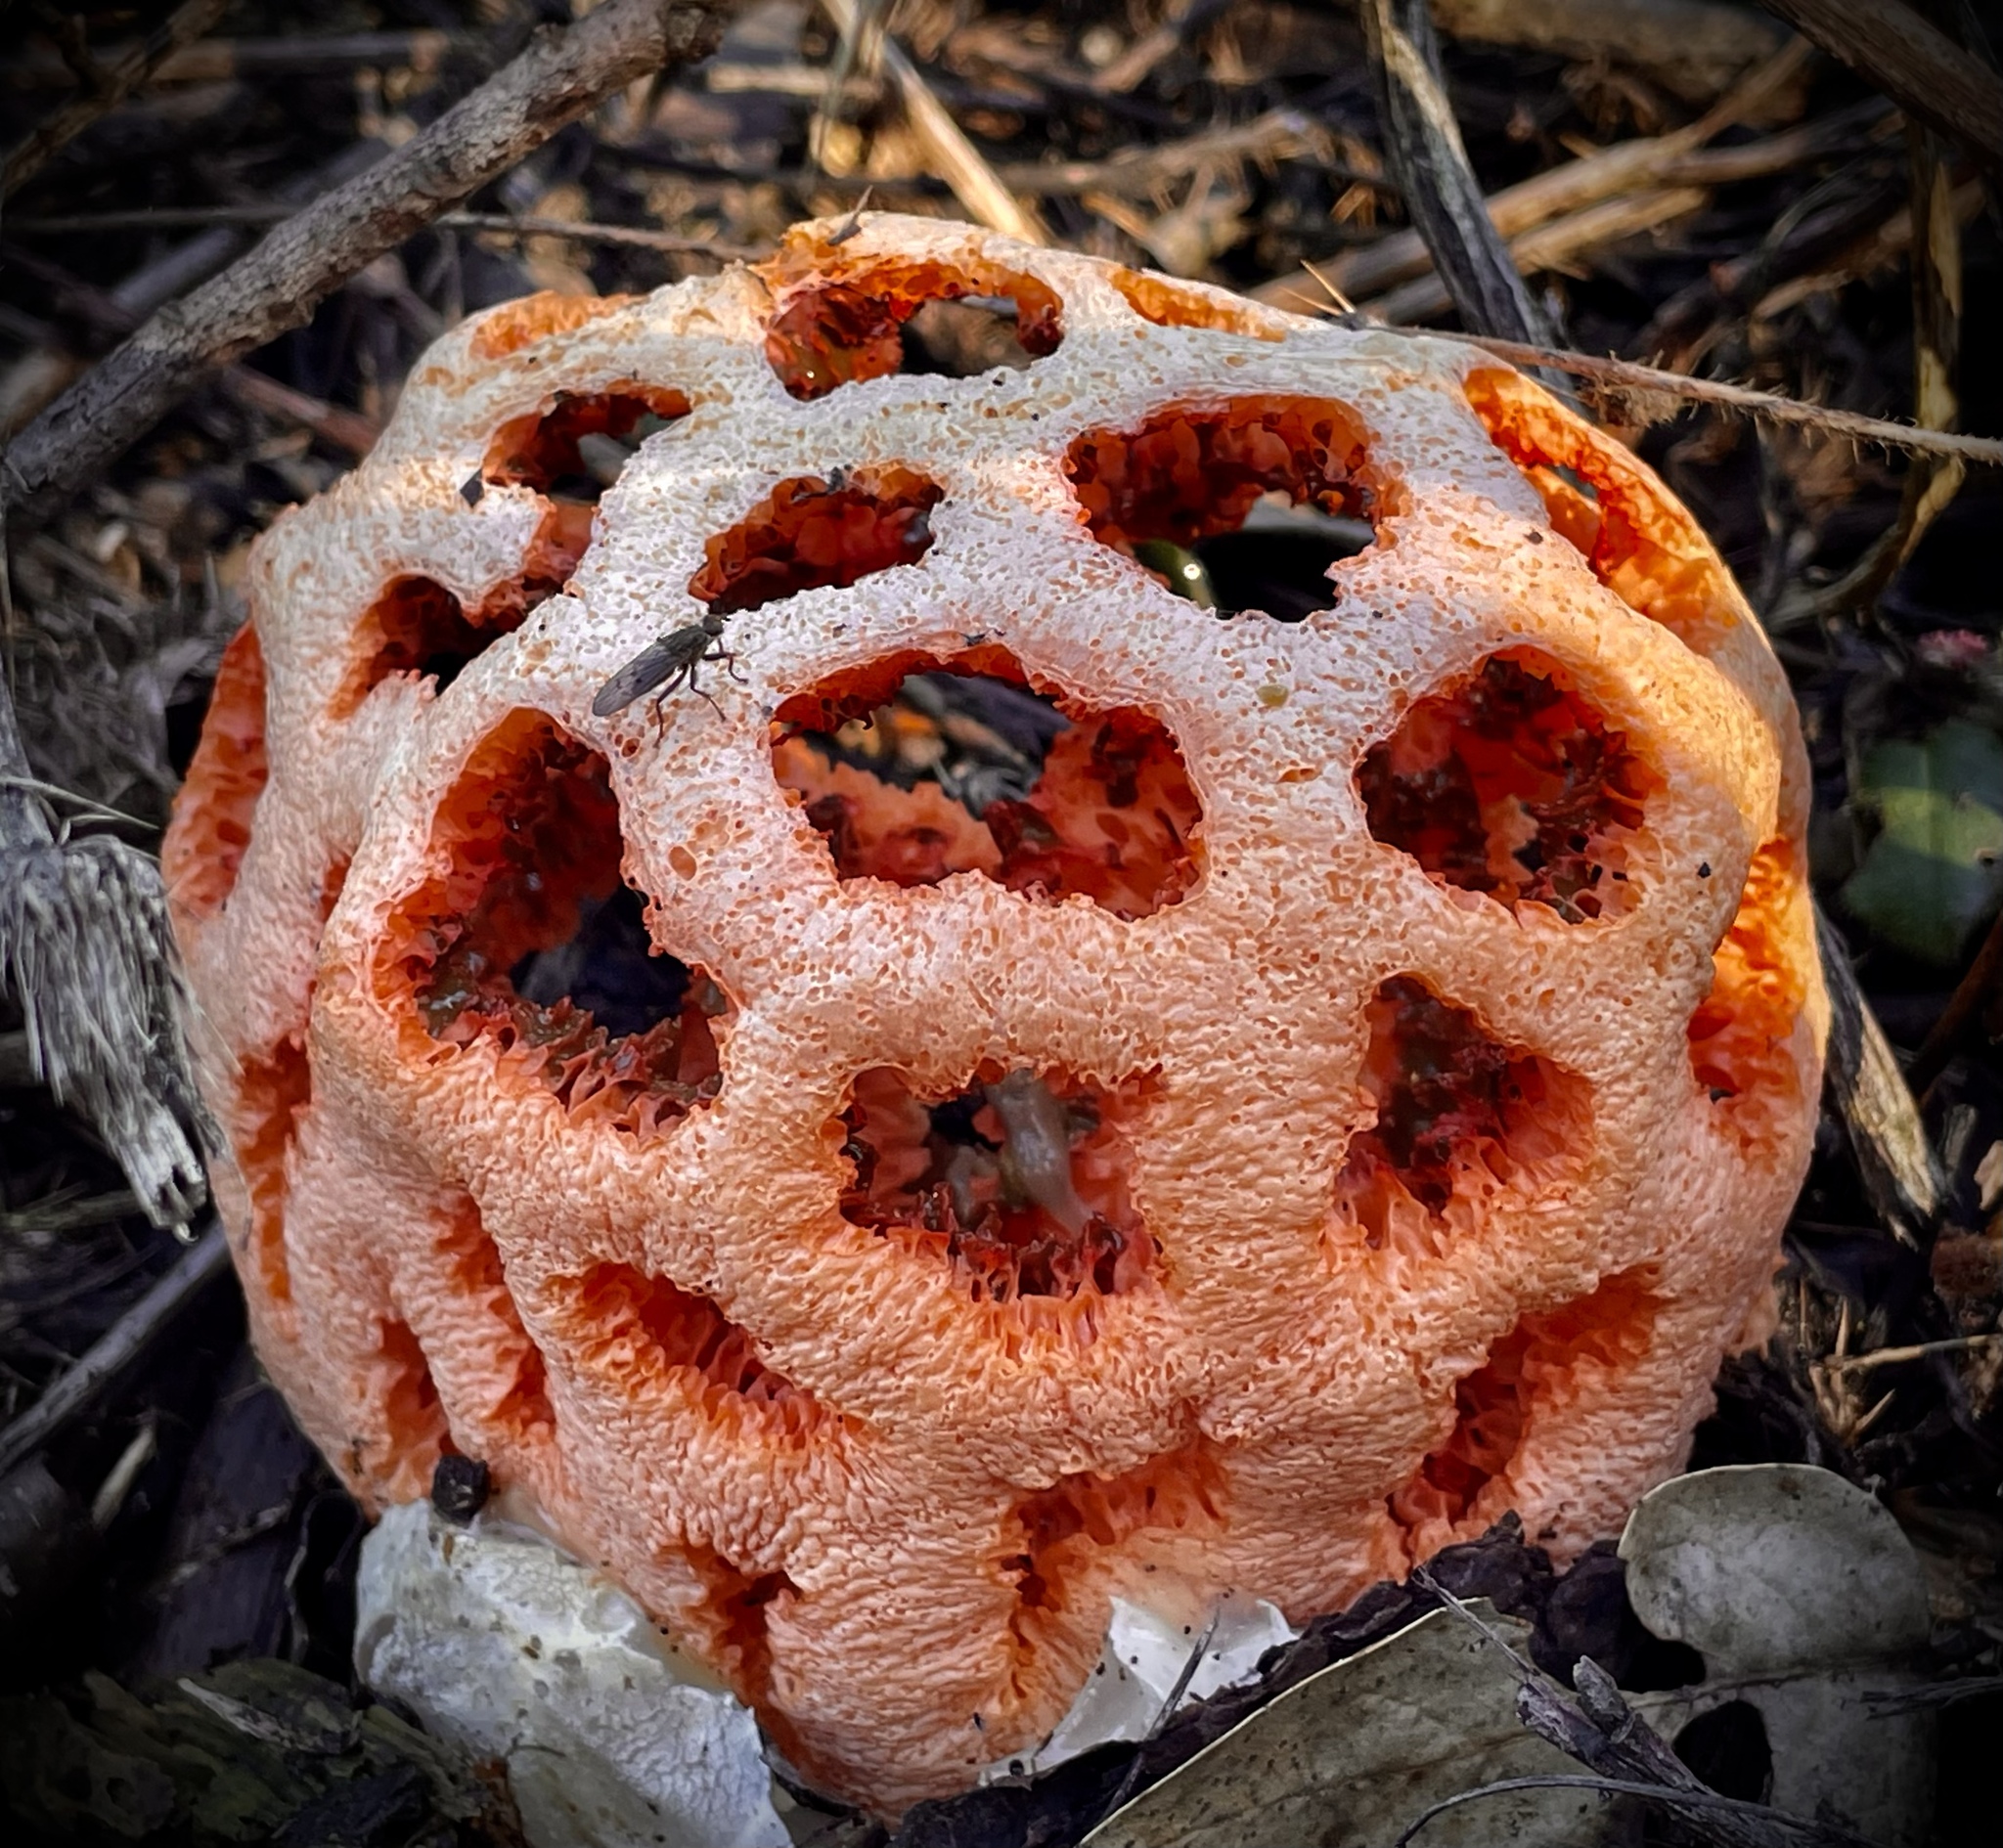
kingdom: Fungi
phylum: Basidiomycota
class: Agaricomycetes
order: Phallales
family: Phallaceae
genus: Clathrus
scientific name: Clathrus ruber
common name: Red cage
